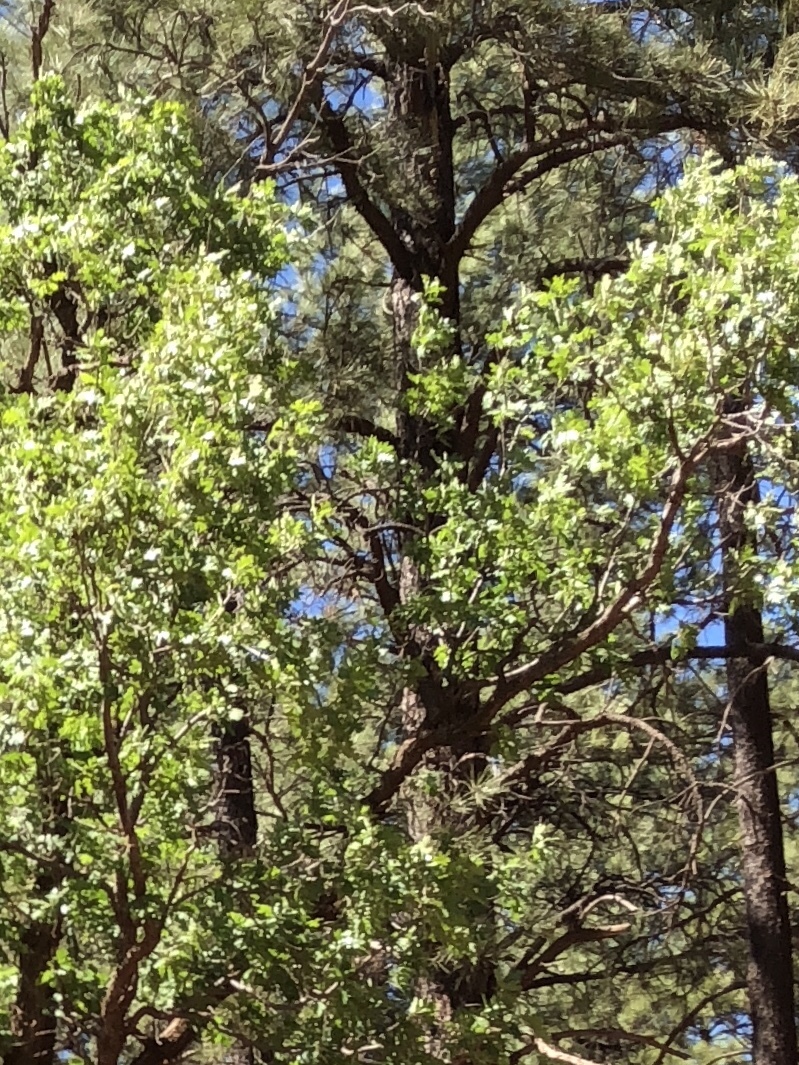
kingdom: Plantae
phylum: Tracheophyta
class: Magnoliopsida
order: Fagales
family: Fagaceae
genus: Quercus
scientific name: Quercus gambelii
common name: Gambel oak
